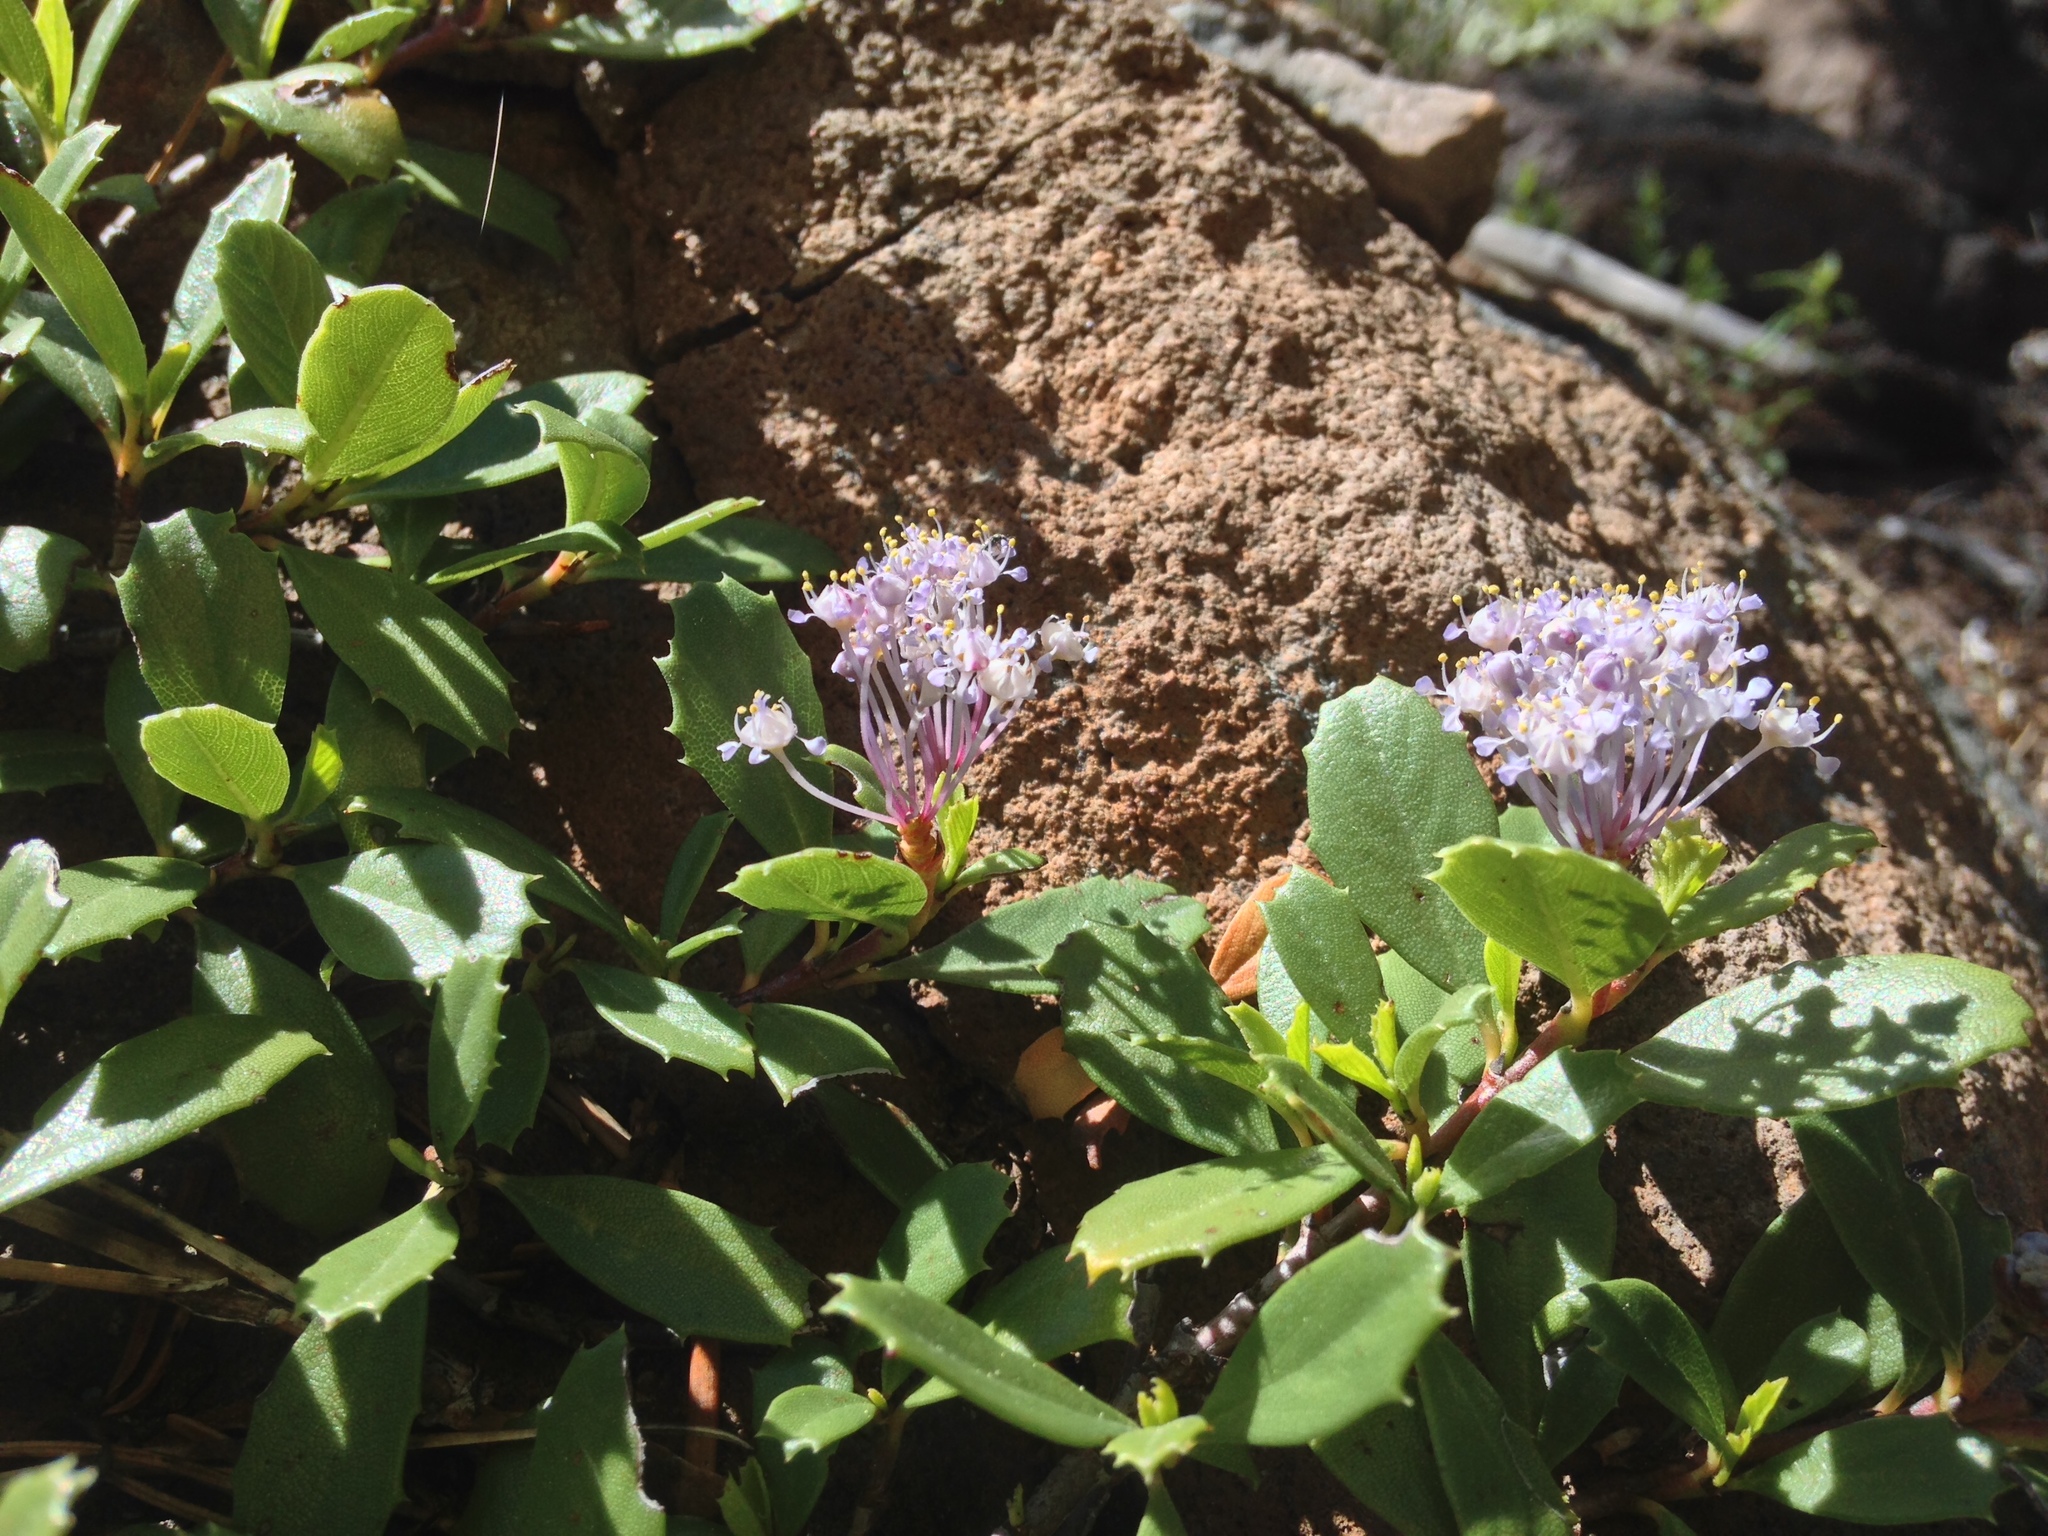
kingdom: Plantae
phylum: Tracheophyta
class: Magnoliopsida
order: Rosales
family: Rhamnaceae
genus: Ceanothus
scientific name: Ceanothus prostratus
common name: Mahala-mat
